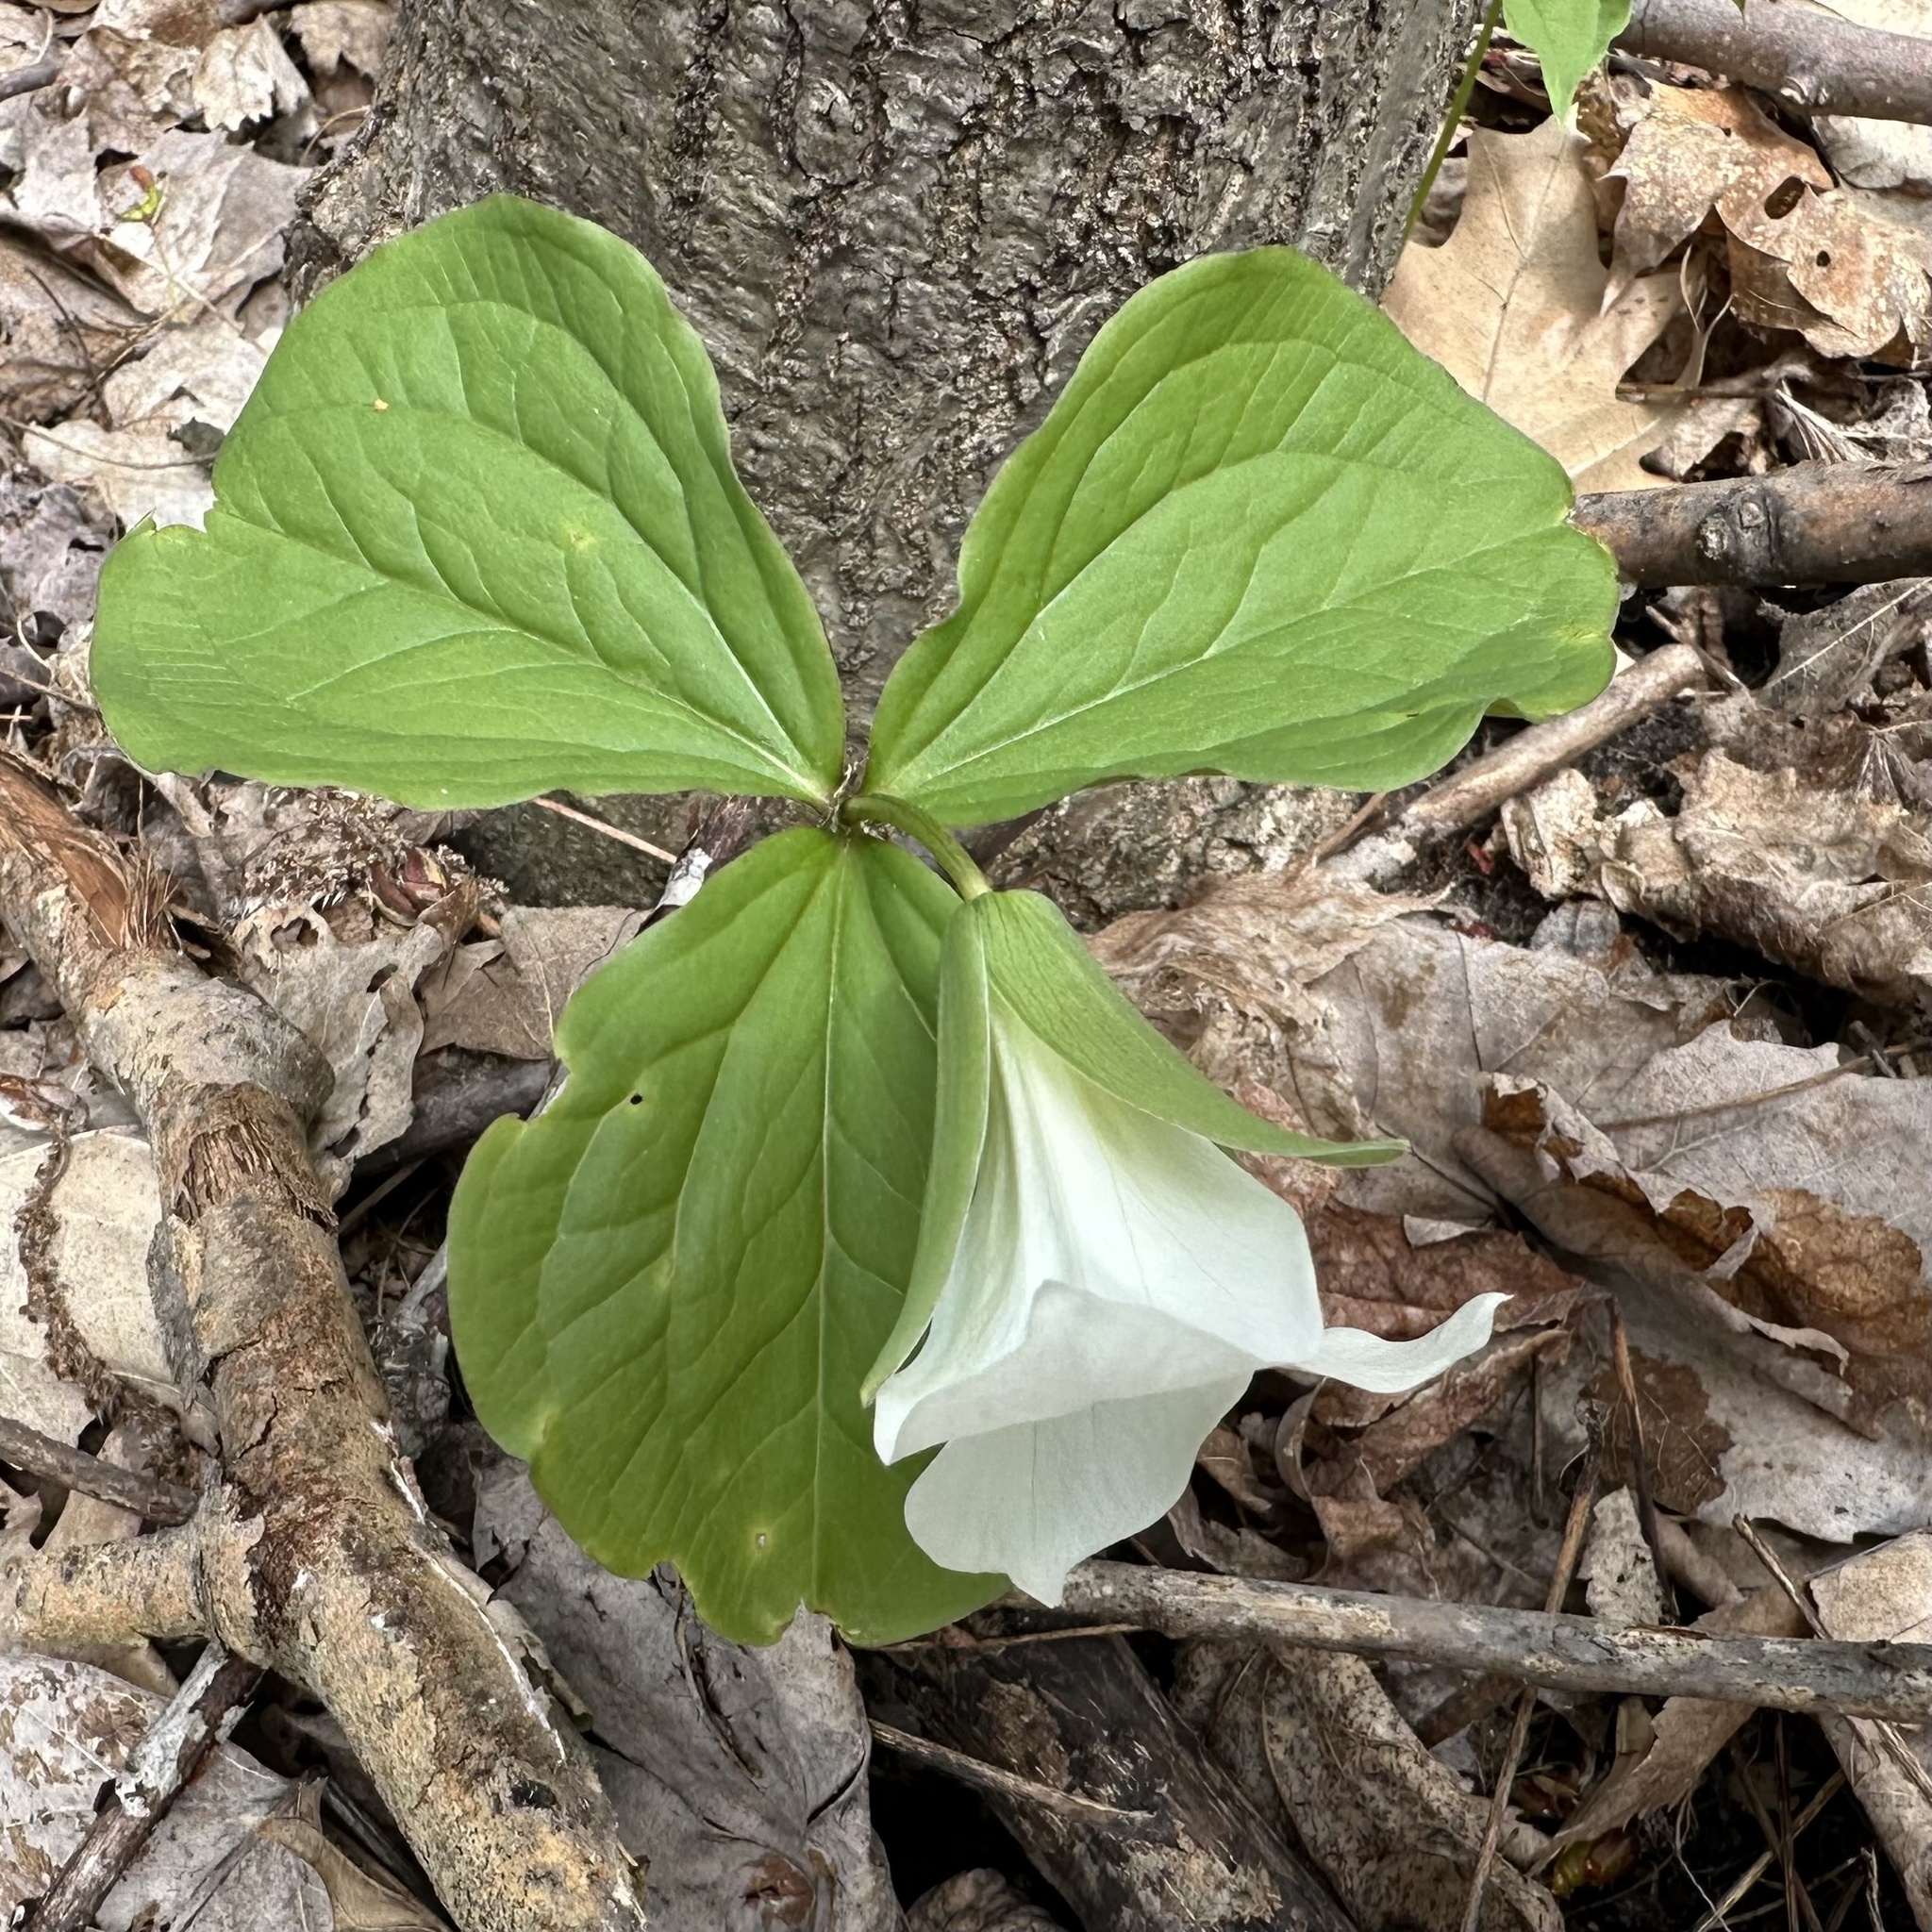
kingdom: Plantae
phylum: Tracheophyta
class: Liliopsida
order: Liliales
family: Melanthiaceae
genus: Trillium
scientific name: Trillium grandiflorum
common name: Great white trillium
